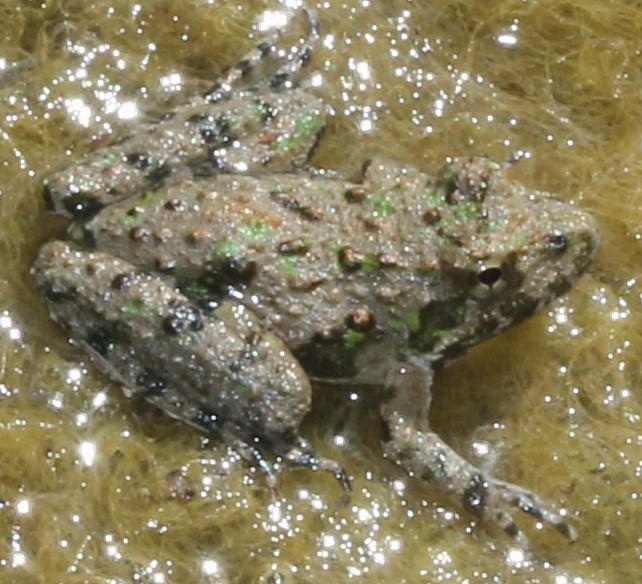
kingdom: Animalia
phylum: Chordata
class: Amphibia
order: Anura
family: Hylidae
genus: Acris
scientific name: Acris blanchardi
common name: Blanchard's cricket frog
